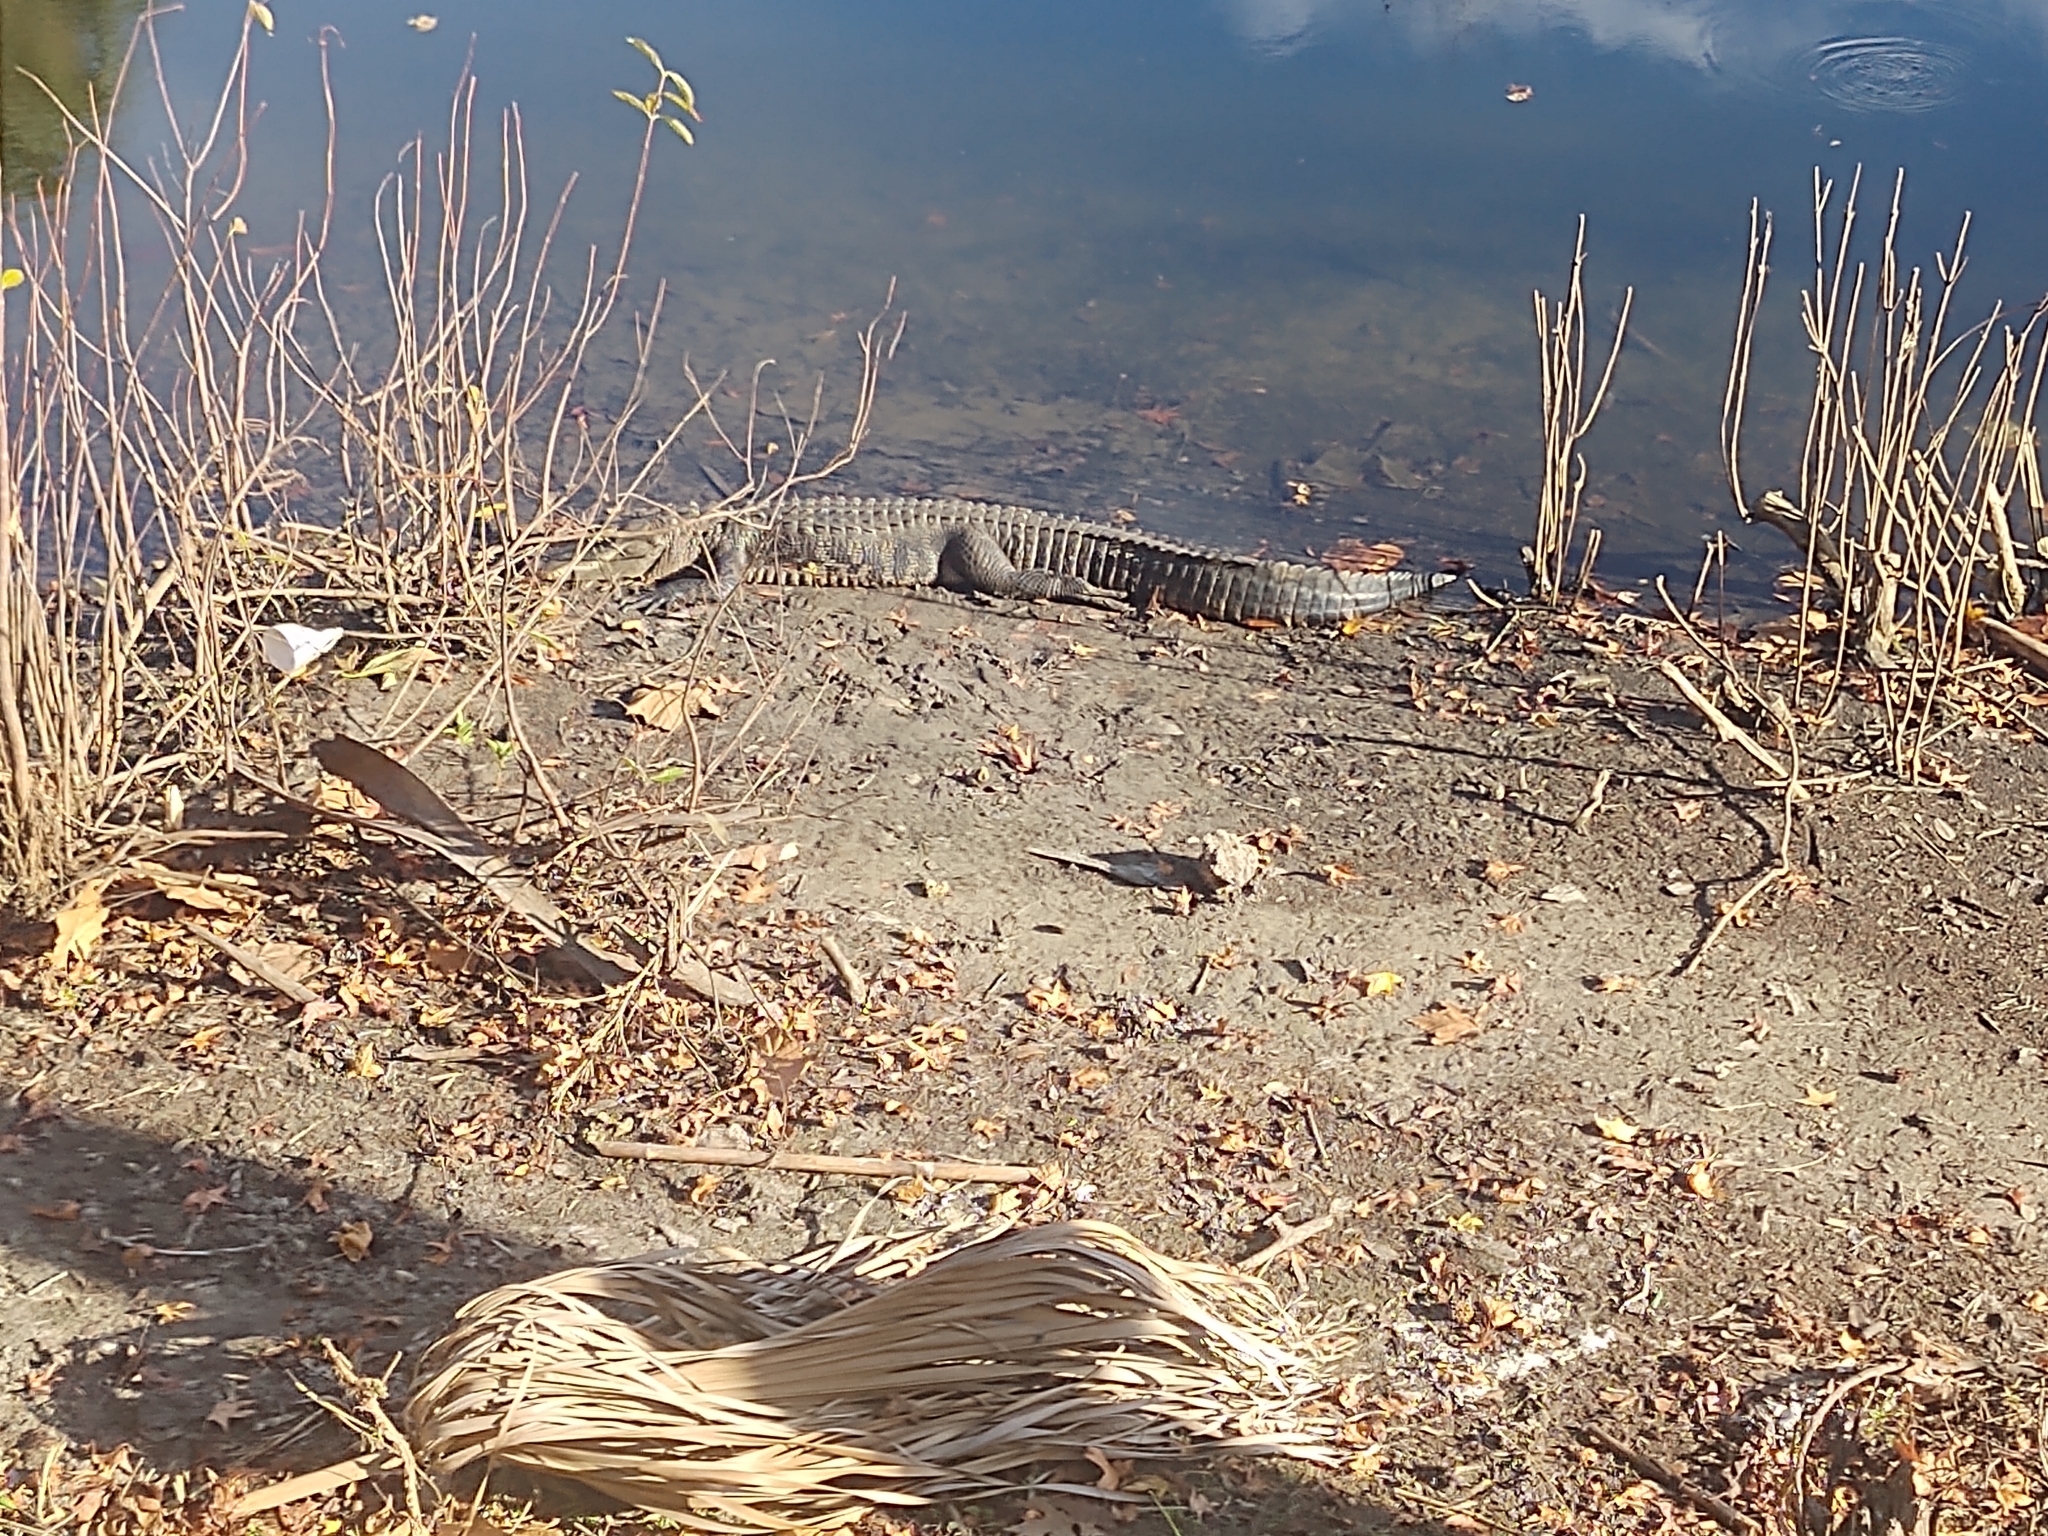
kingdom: Animalia
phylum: Chordata
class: Crocodylia
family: Alligatoridae
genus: Alligator
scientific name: Alligator mississippiensis
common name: American alligator
